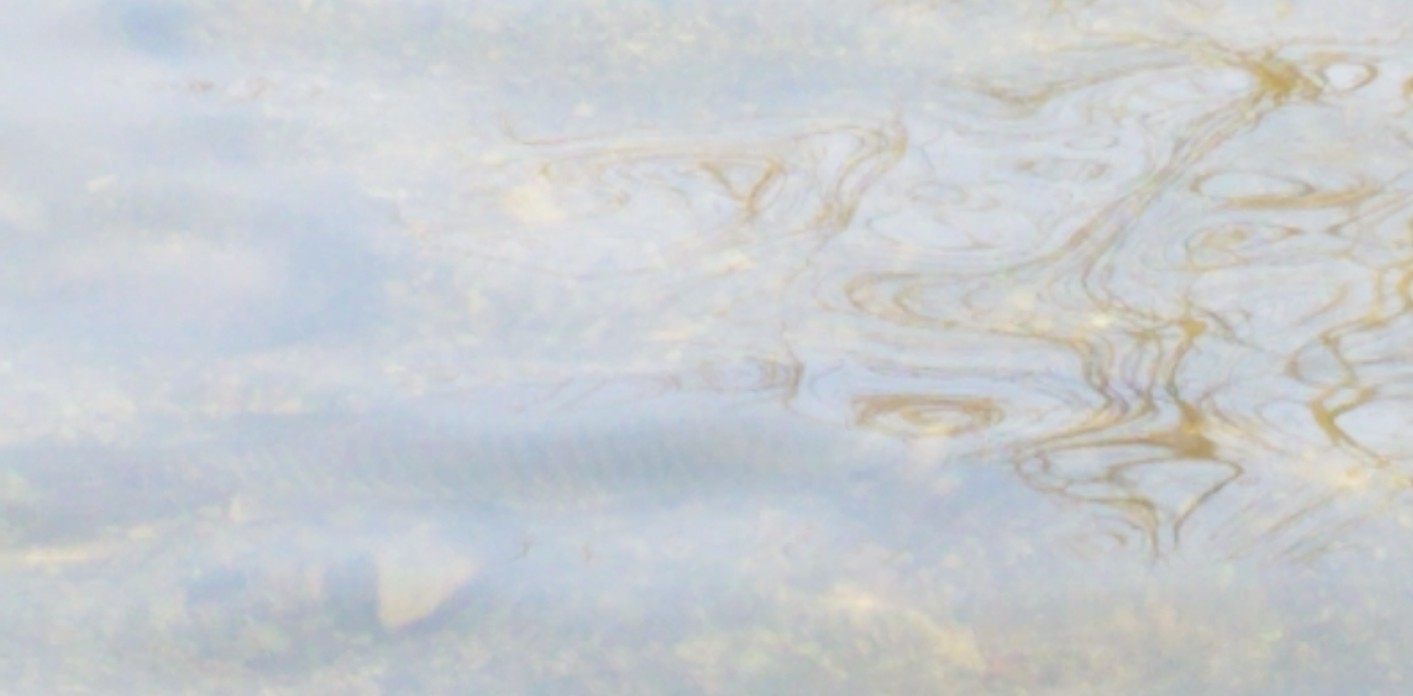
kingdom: Animalia
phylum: Chordata
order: Esociformes
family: Esocidae
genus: Esox
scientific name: Esox
